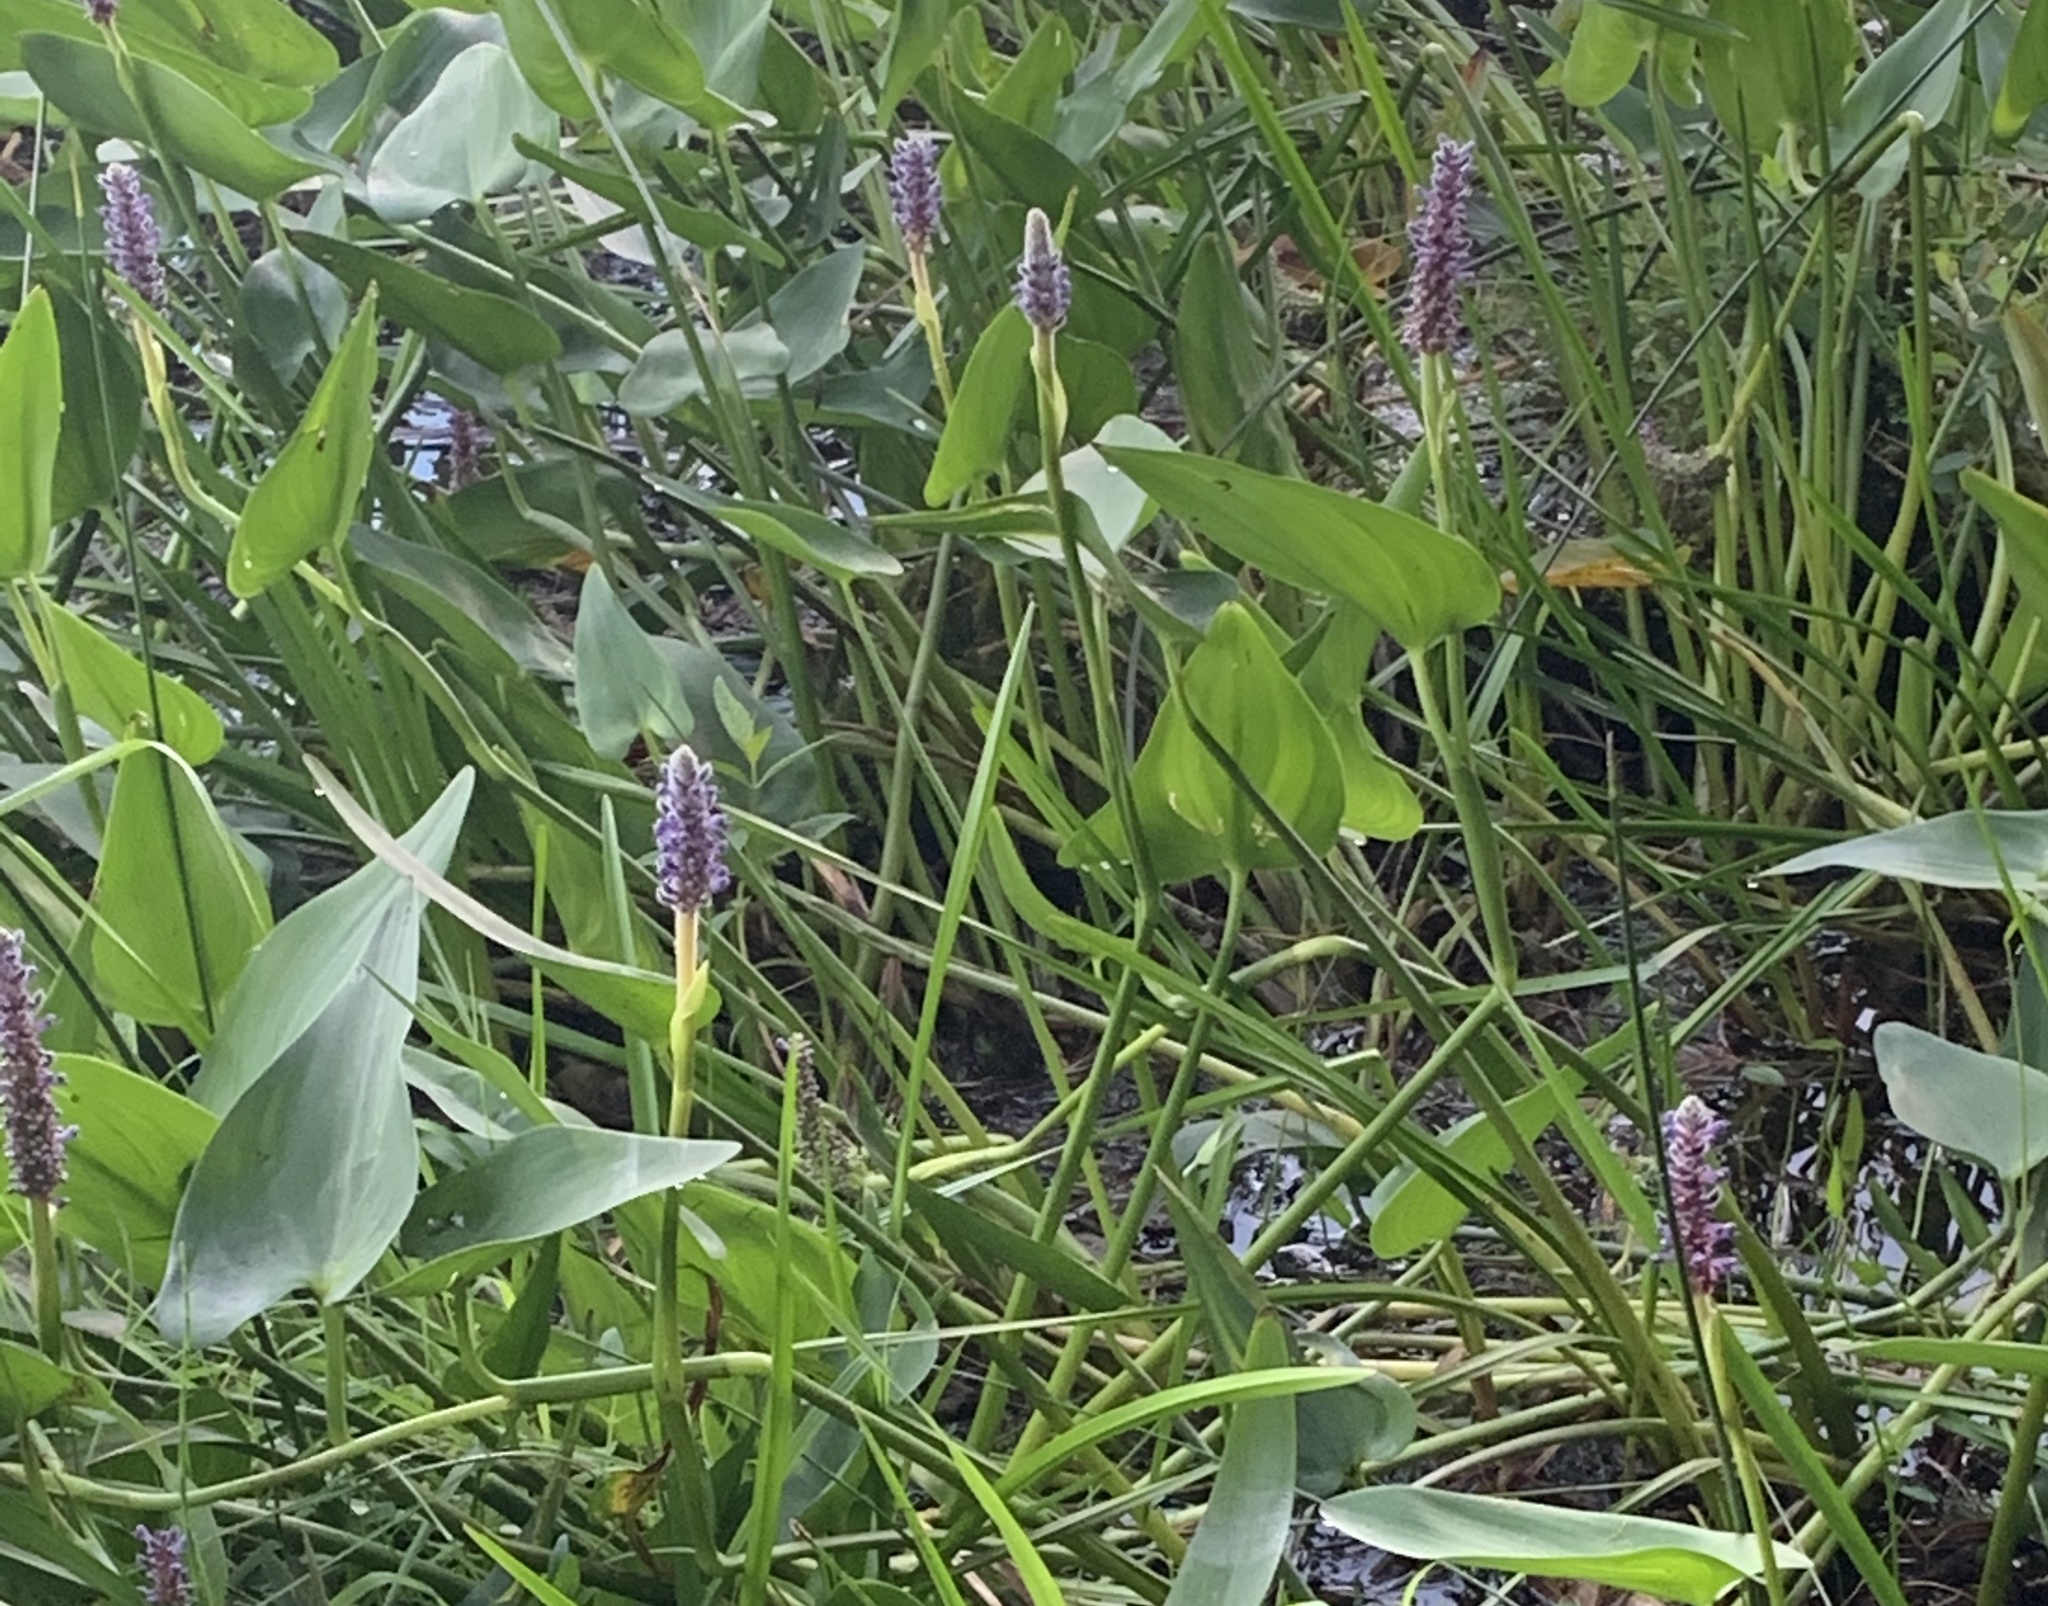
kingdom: Plantae
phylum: Tracheophyta
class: Liliopsida
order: Commelinales
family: Pontederiaceae
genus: Pontederia
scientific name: Pontederia cordata
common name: Pickerelweed
